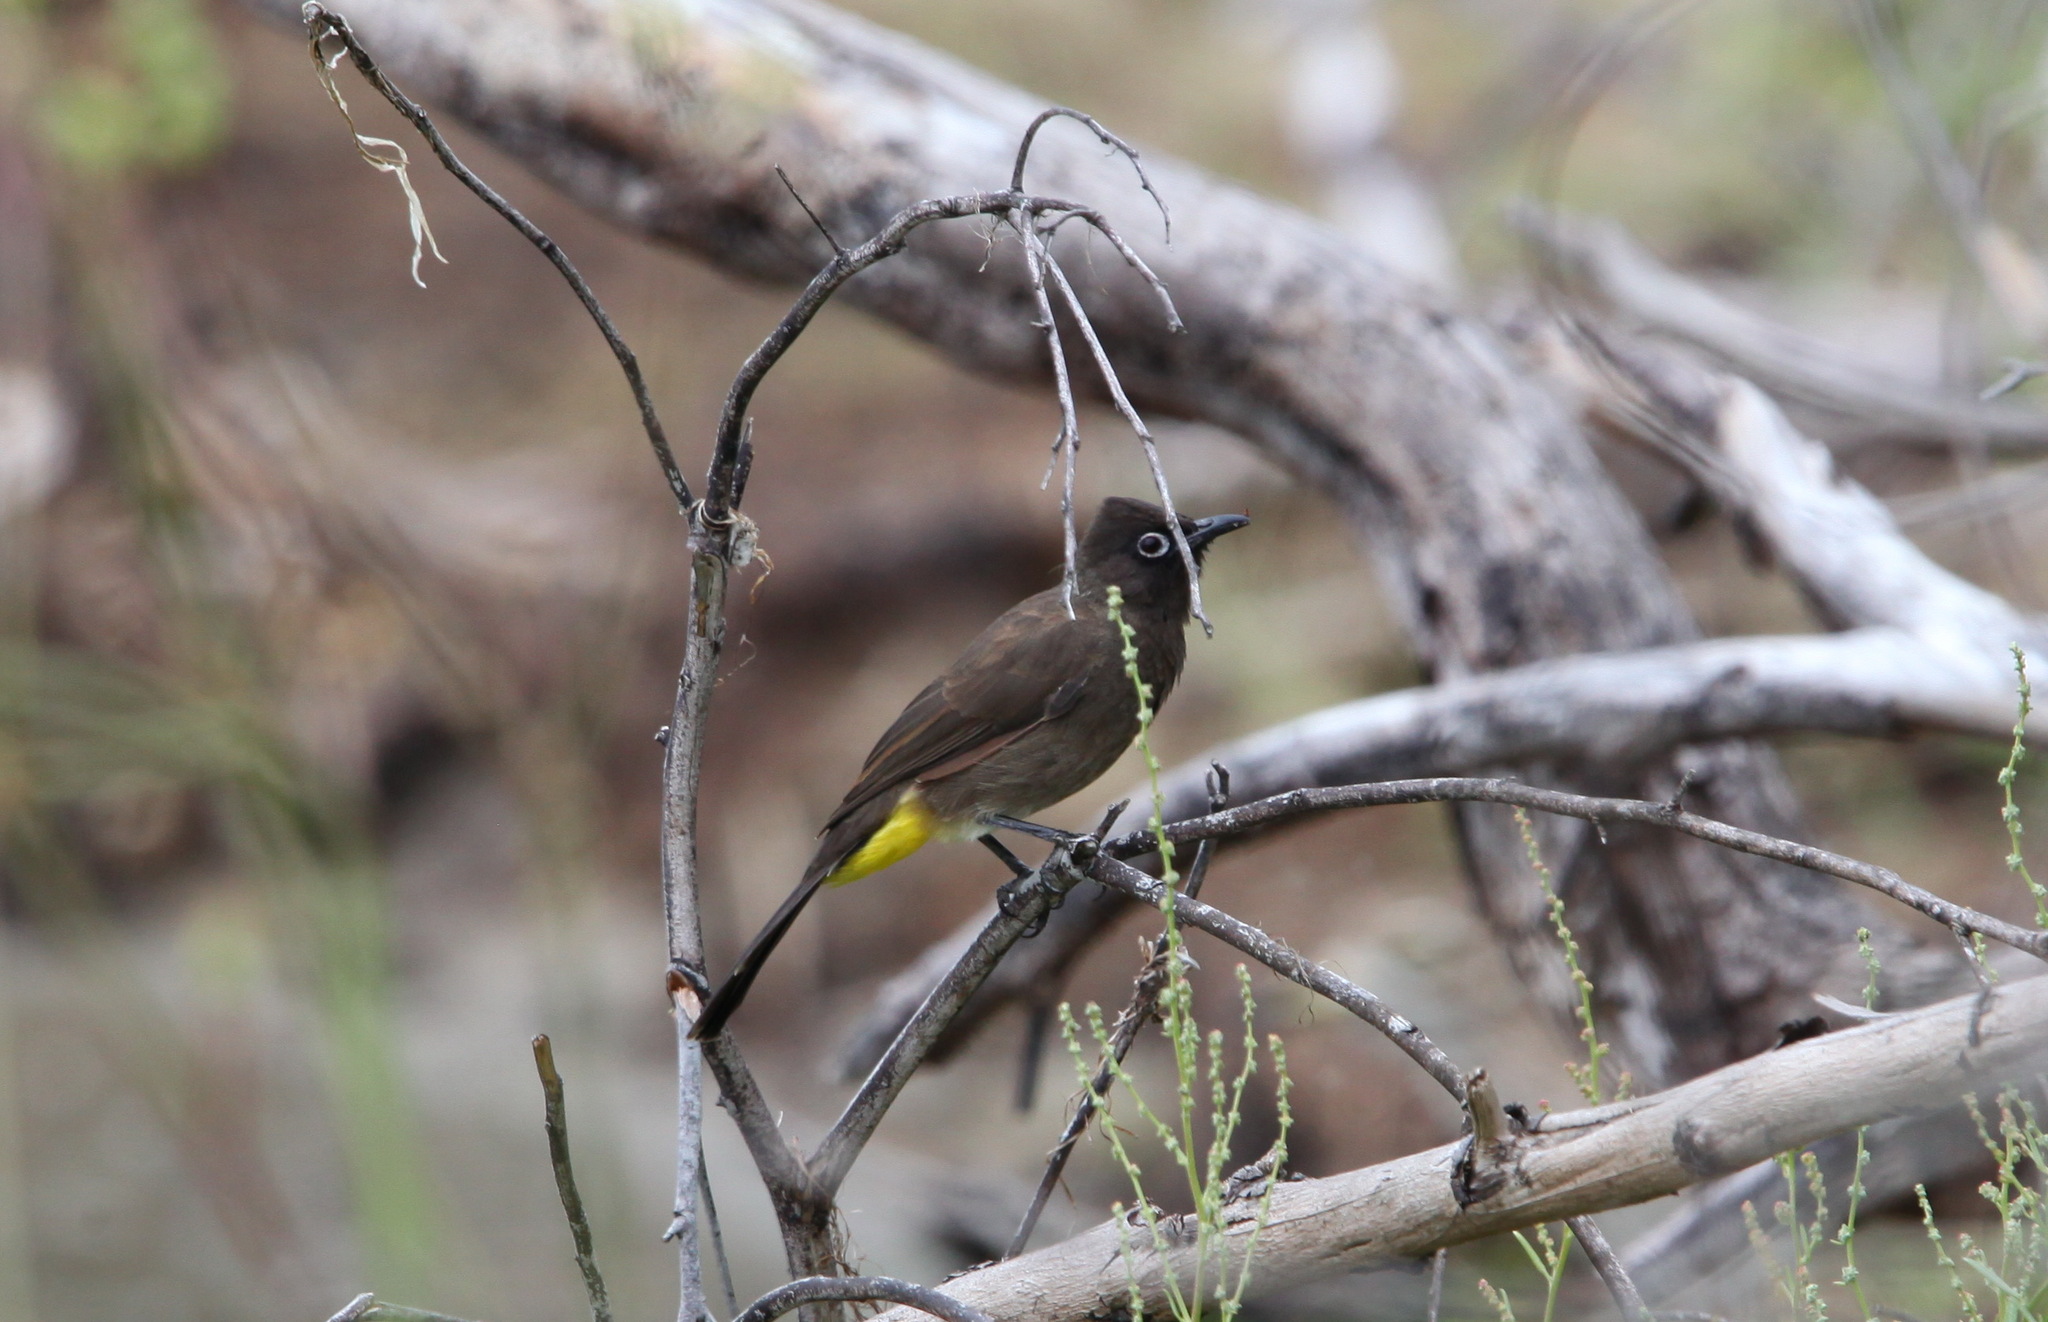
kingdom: Animalia
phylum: Chordata
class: Aves
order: Passeriformes
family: Pycnonotidae
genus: Pycnonotus
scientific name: Pycnonotus capensis
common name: Cape bulbul
